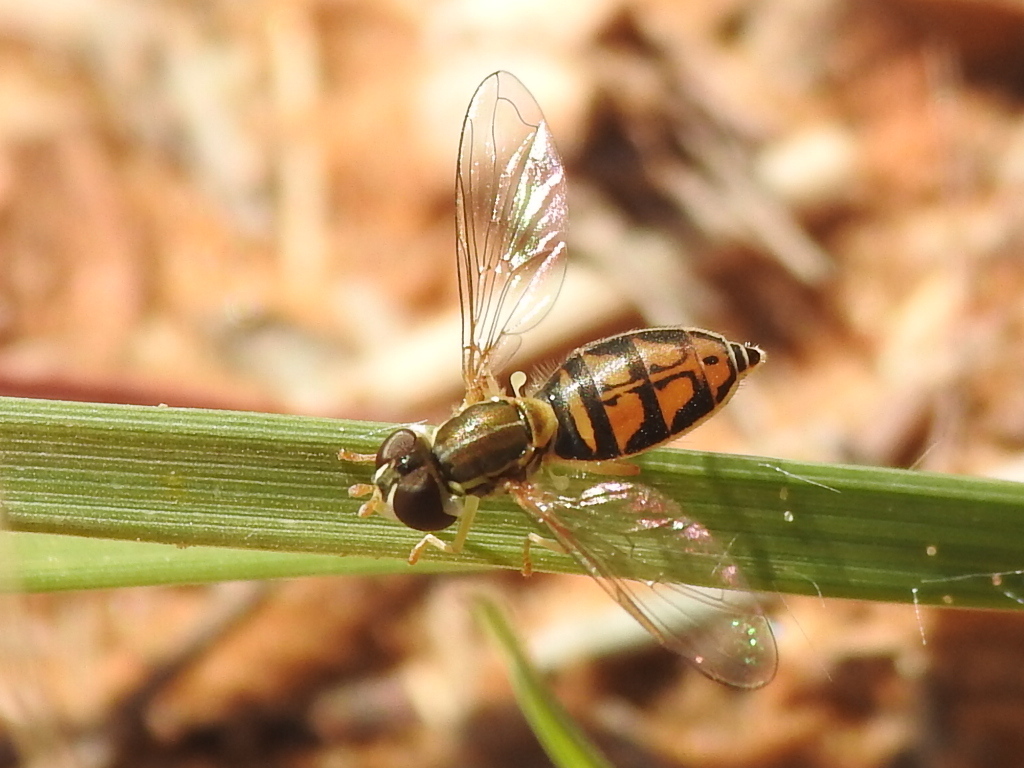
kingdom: Animalia
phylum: Arthropoda
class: Insecta
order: Diptera
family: Syrphidae
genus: Toxomerus
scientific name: Toxomerus marginatus
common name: Syrphid fly
